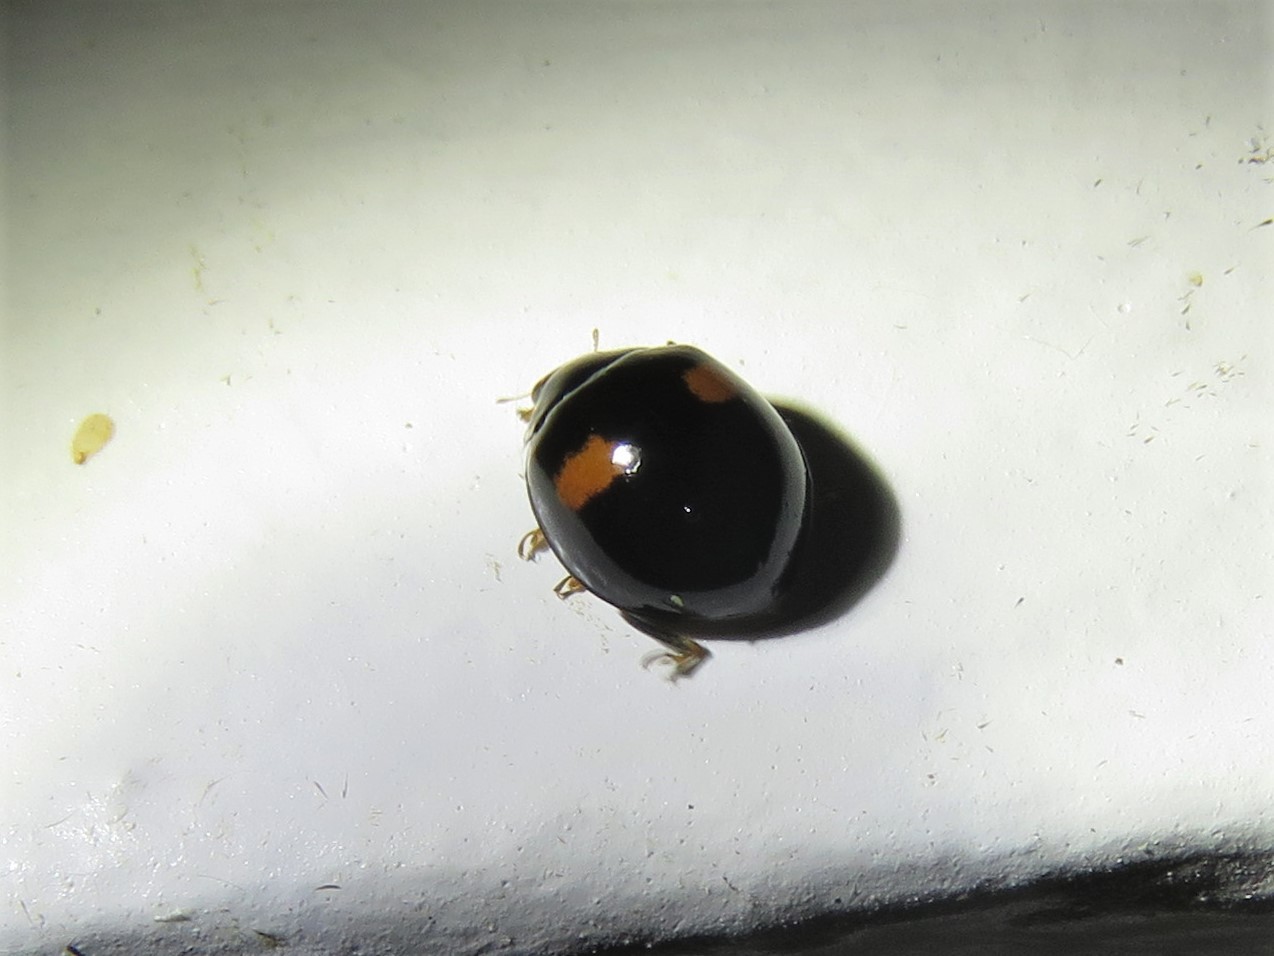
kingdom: Animalia
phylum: Arthropoda
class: Insecta
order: Coleoptera
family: Coccinellidae
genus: Olla
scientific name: Olla v-nigrum
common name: Ashy gray lady beetle
